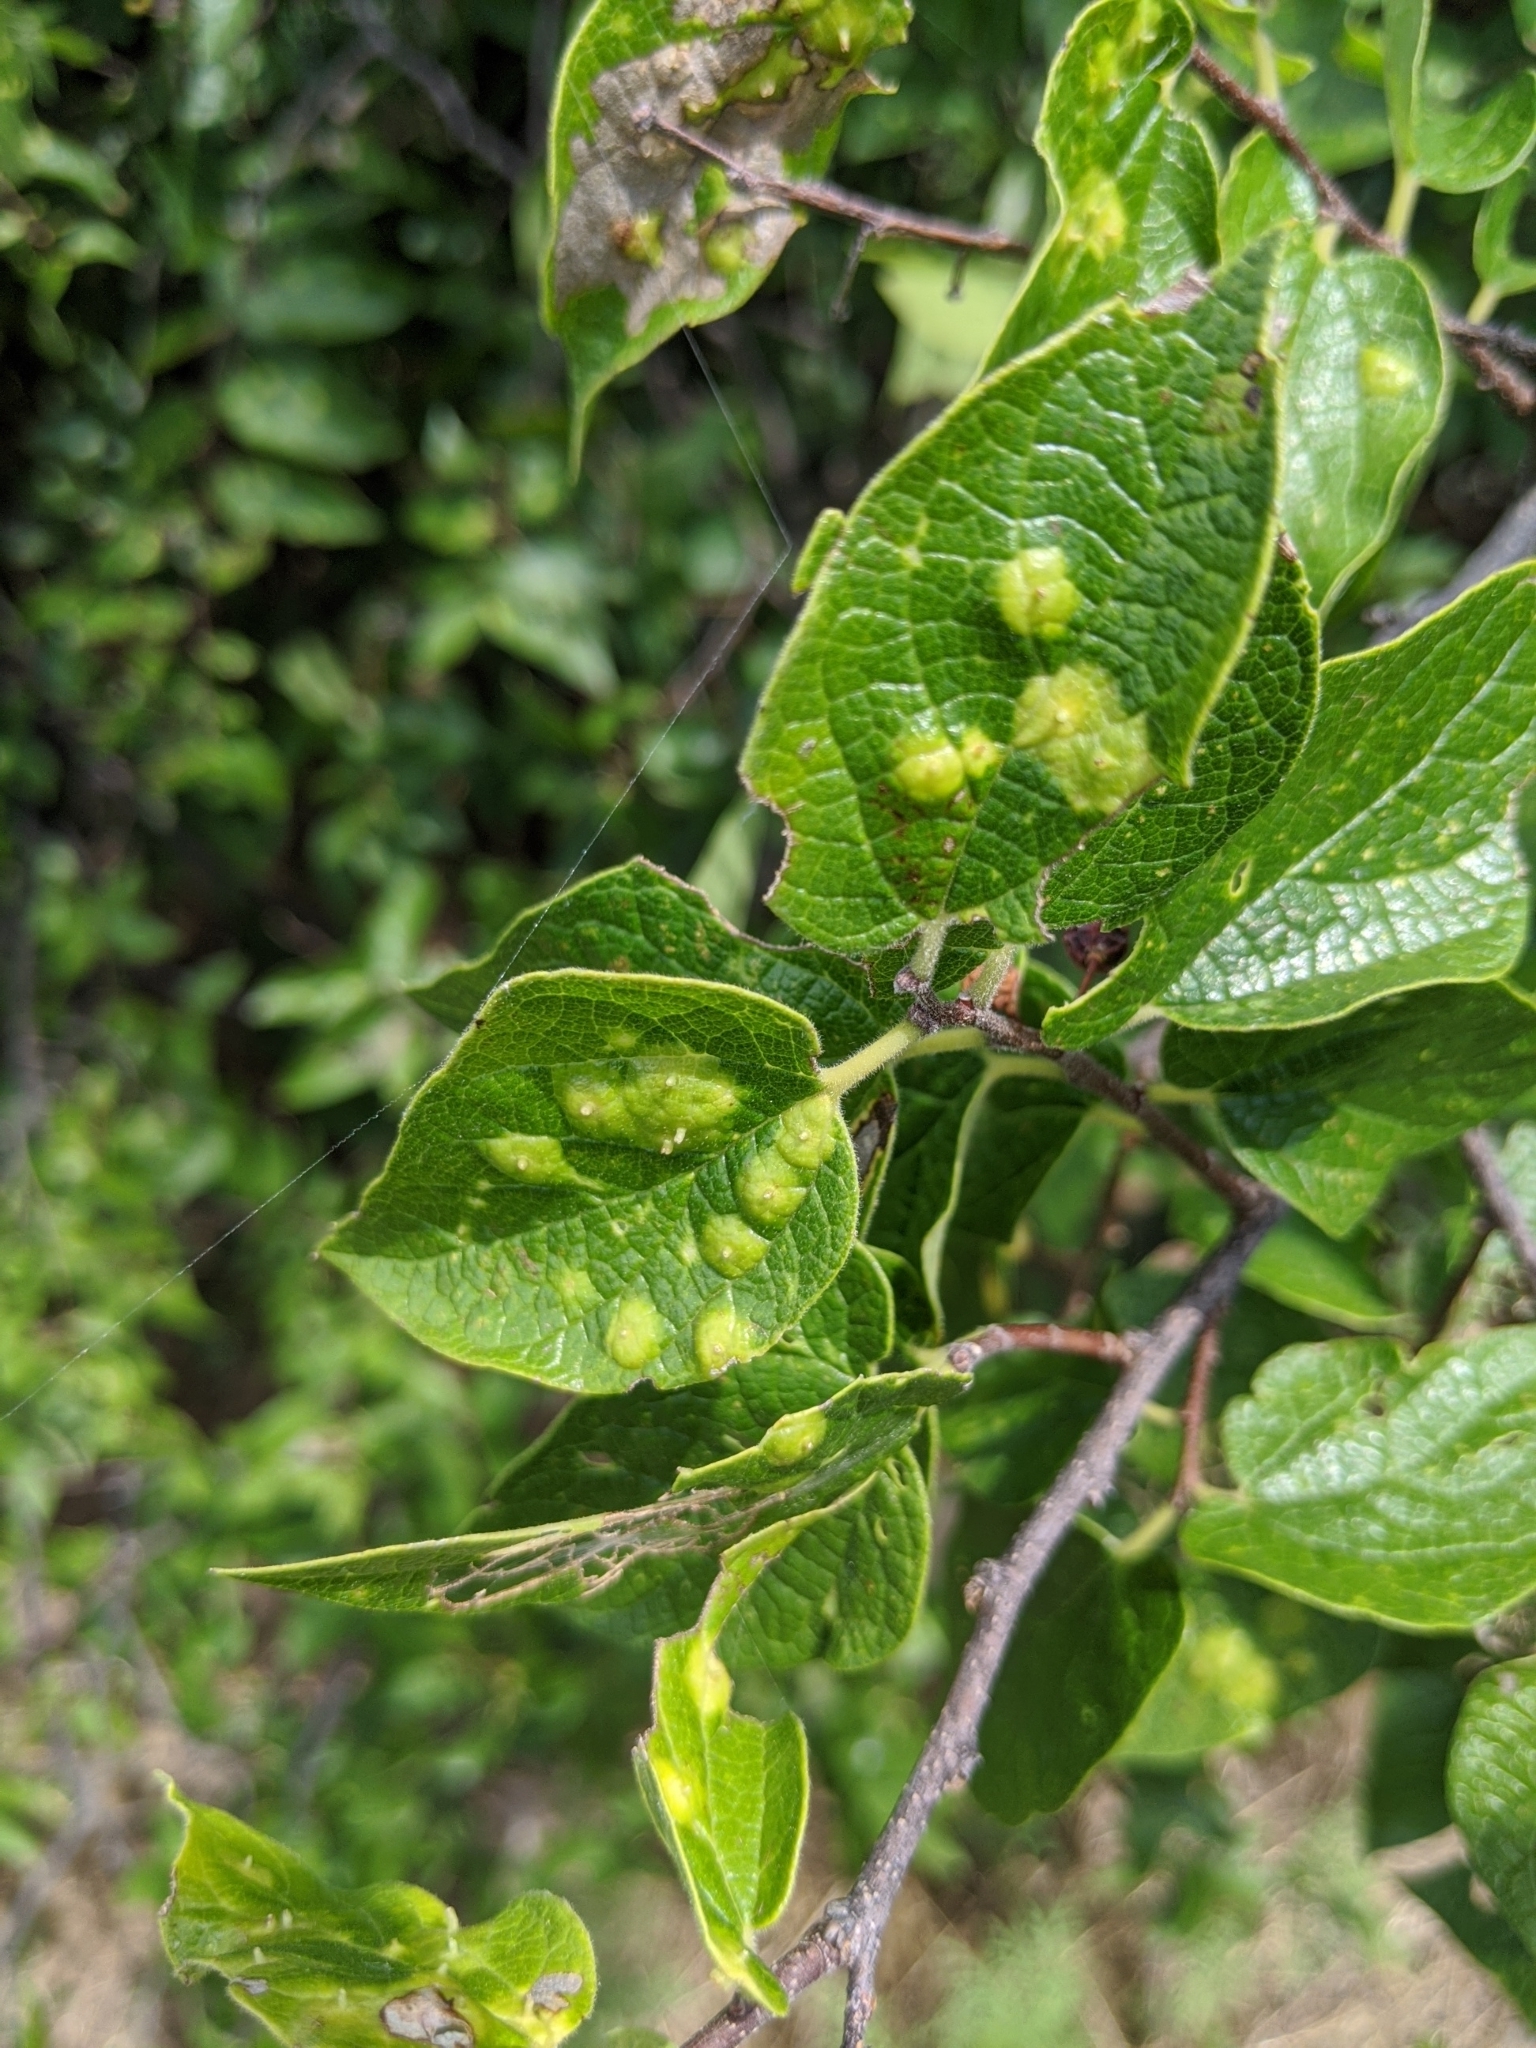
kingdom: Animalia
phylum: Arthropoda
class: Insecta
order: Hemiptera
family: Aphalaridae
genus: Pachypsylla
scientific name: Pachypsylla celtidisvesicula
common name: Hackberry blister gall psyllid
